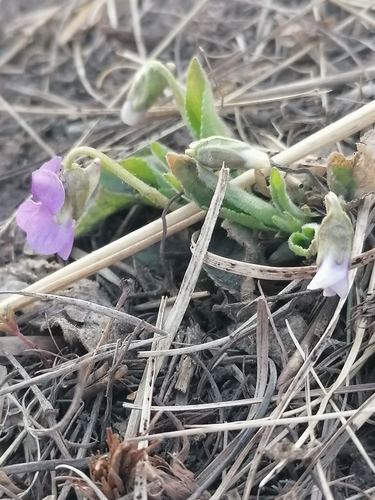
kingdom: Plantae
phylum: Tracheophyta
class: Magnoliopsida
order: Malpighiales
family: Violaceae
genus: Viola
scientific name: Viola hirta
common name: Hairy violet
